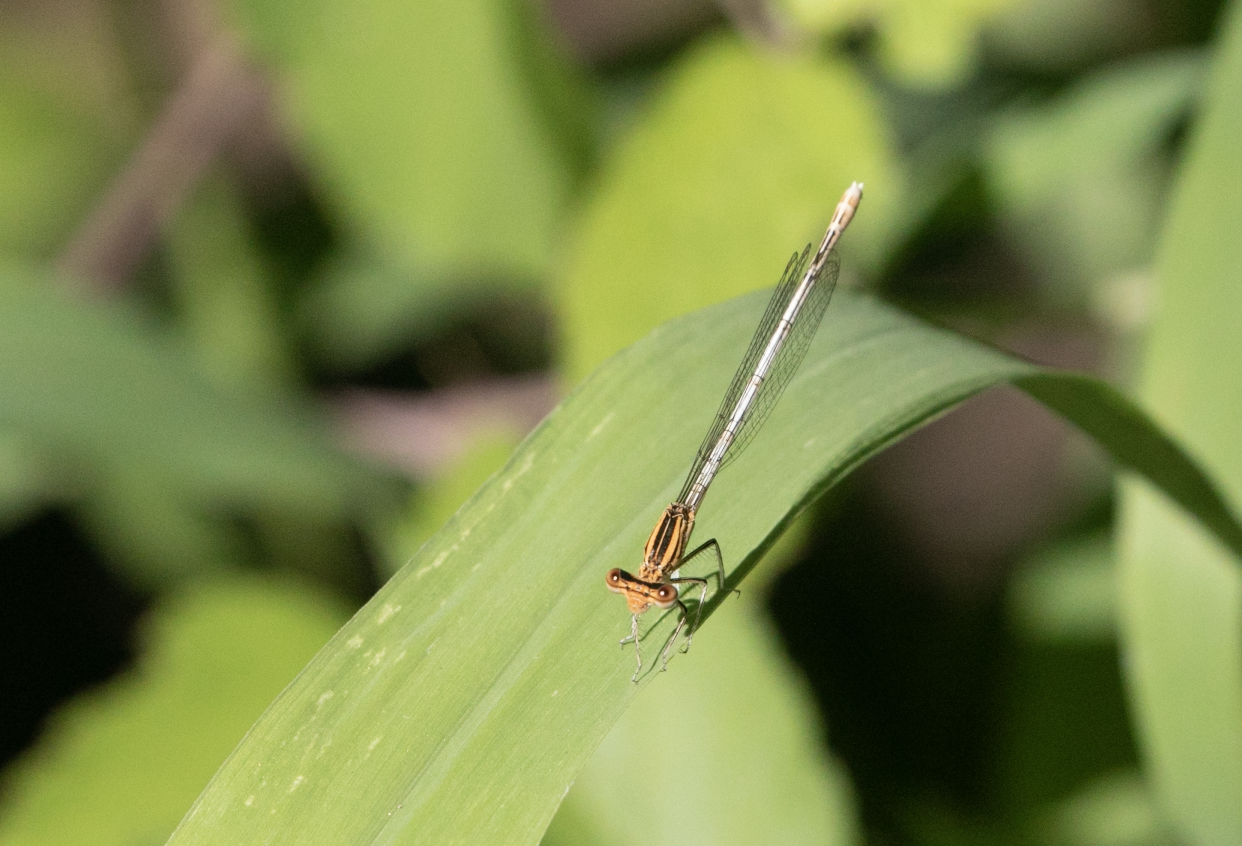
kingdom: Animalia
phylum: Arthropoda
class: Insecta
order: Odonata
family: Platycnemididae
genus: Platycnemis
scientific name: Platycnemis pennipes
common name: White-legged damselfly
